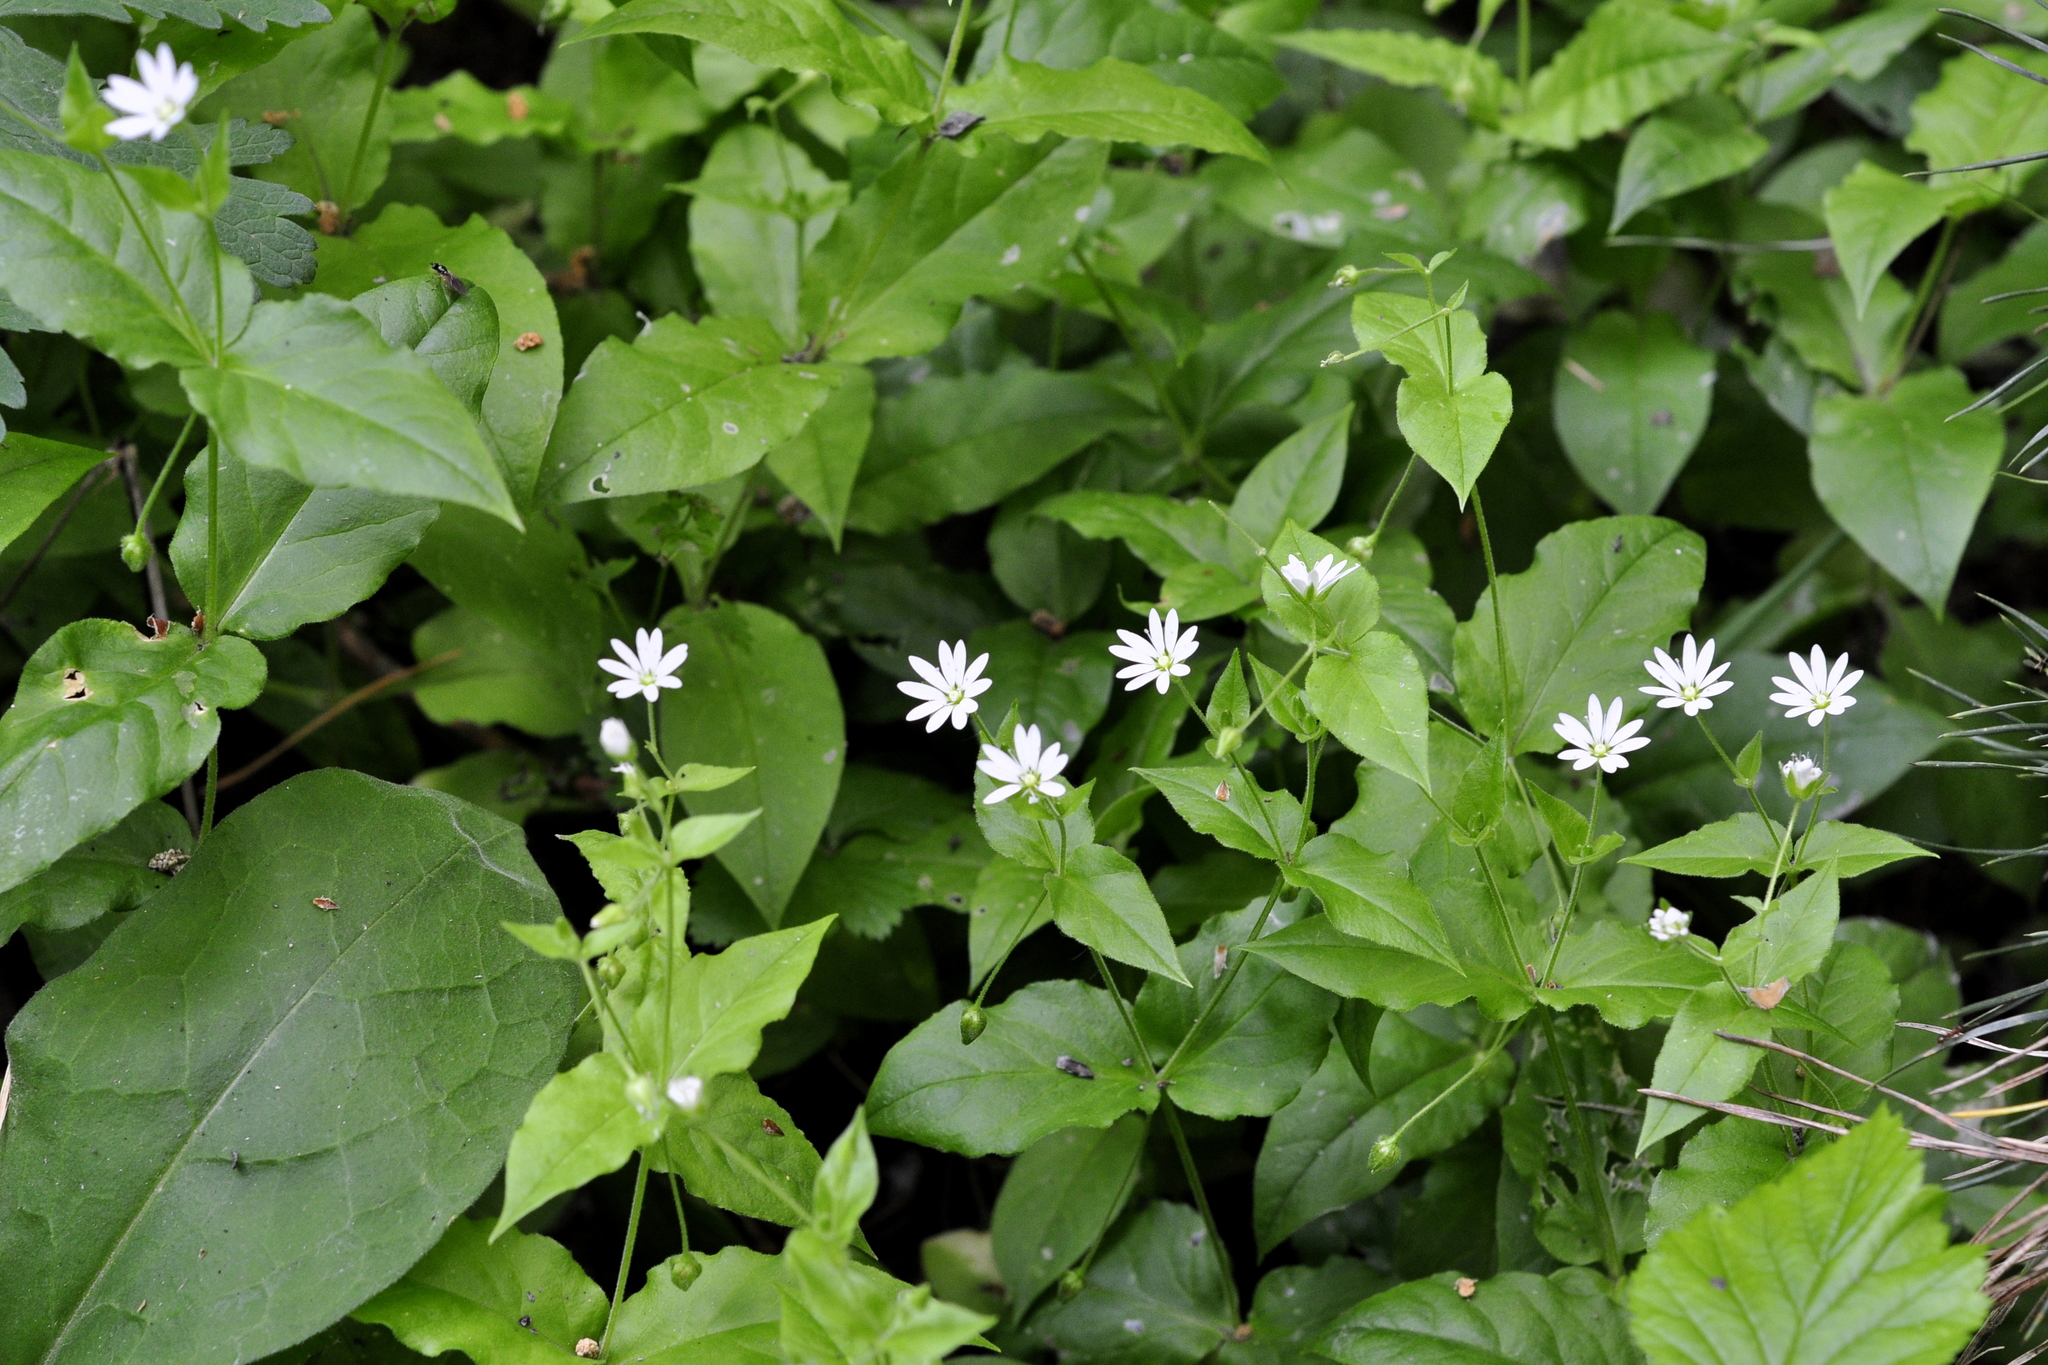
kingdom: Plantae
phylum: Tracheophyta
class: Magnoliopsida
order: Caryophyllales
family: Caryophyllaceae
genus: Stellaria
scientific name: Stellaria bungeana
